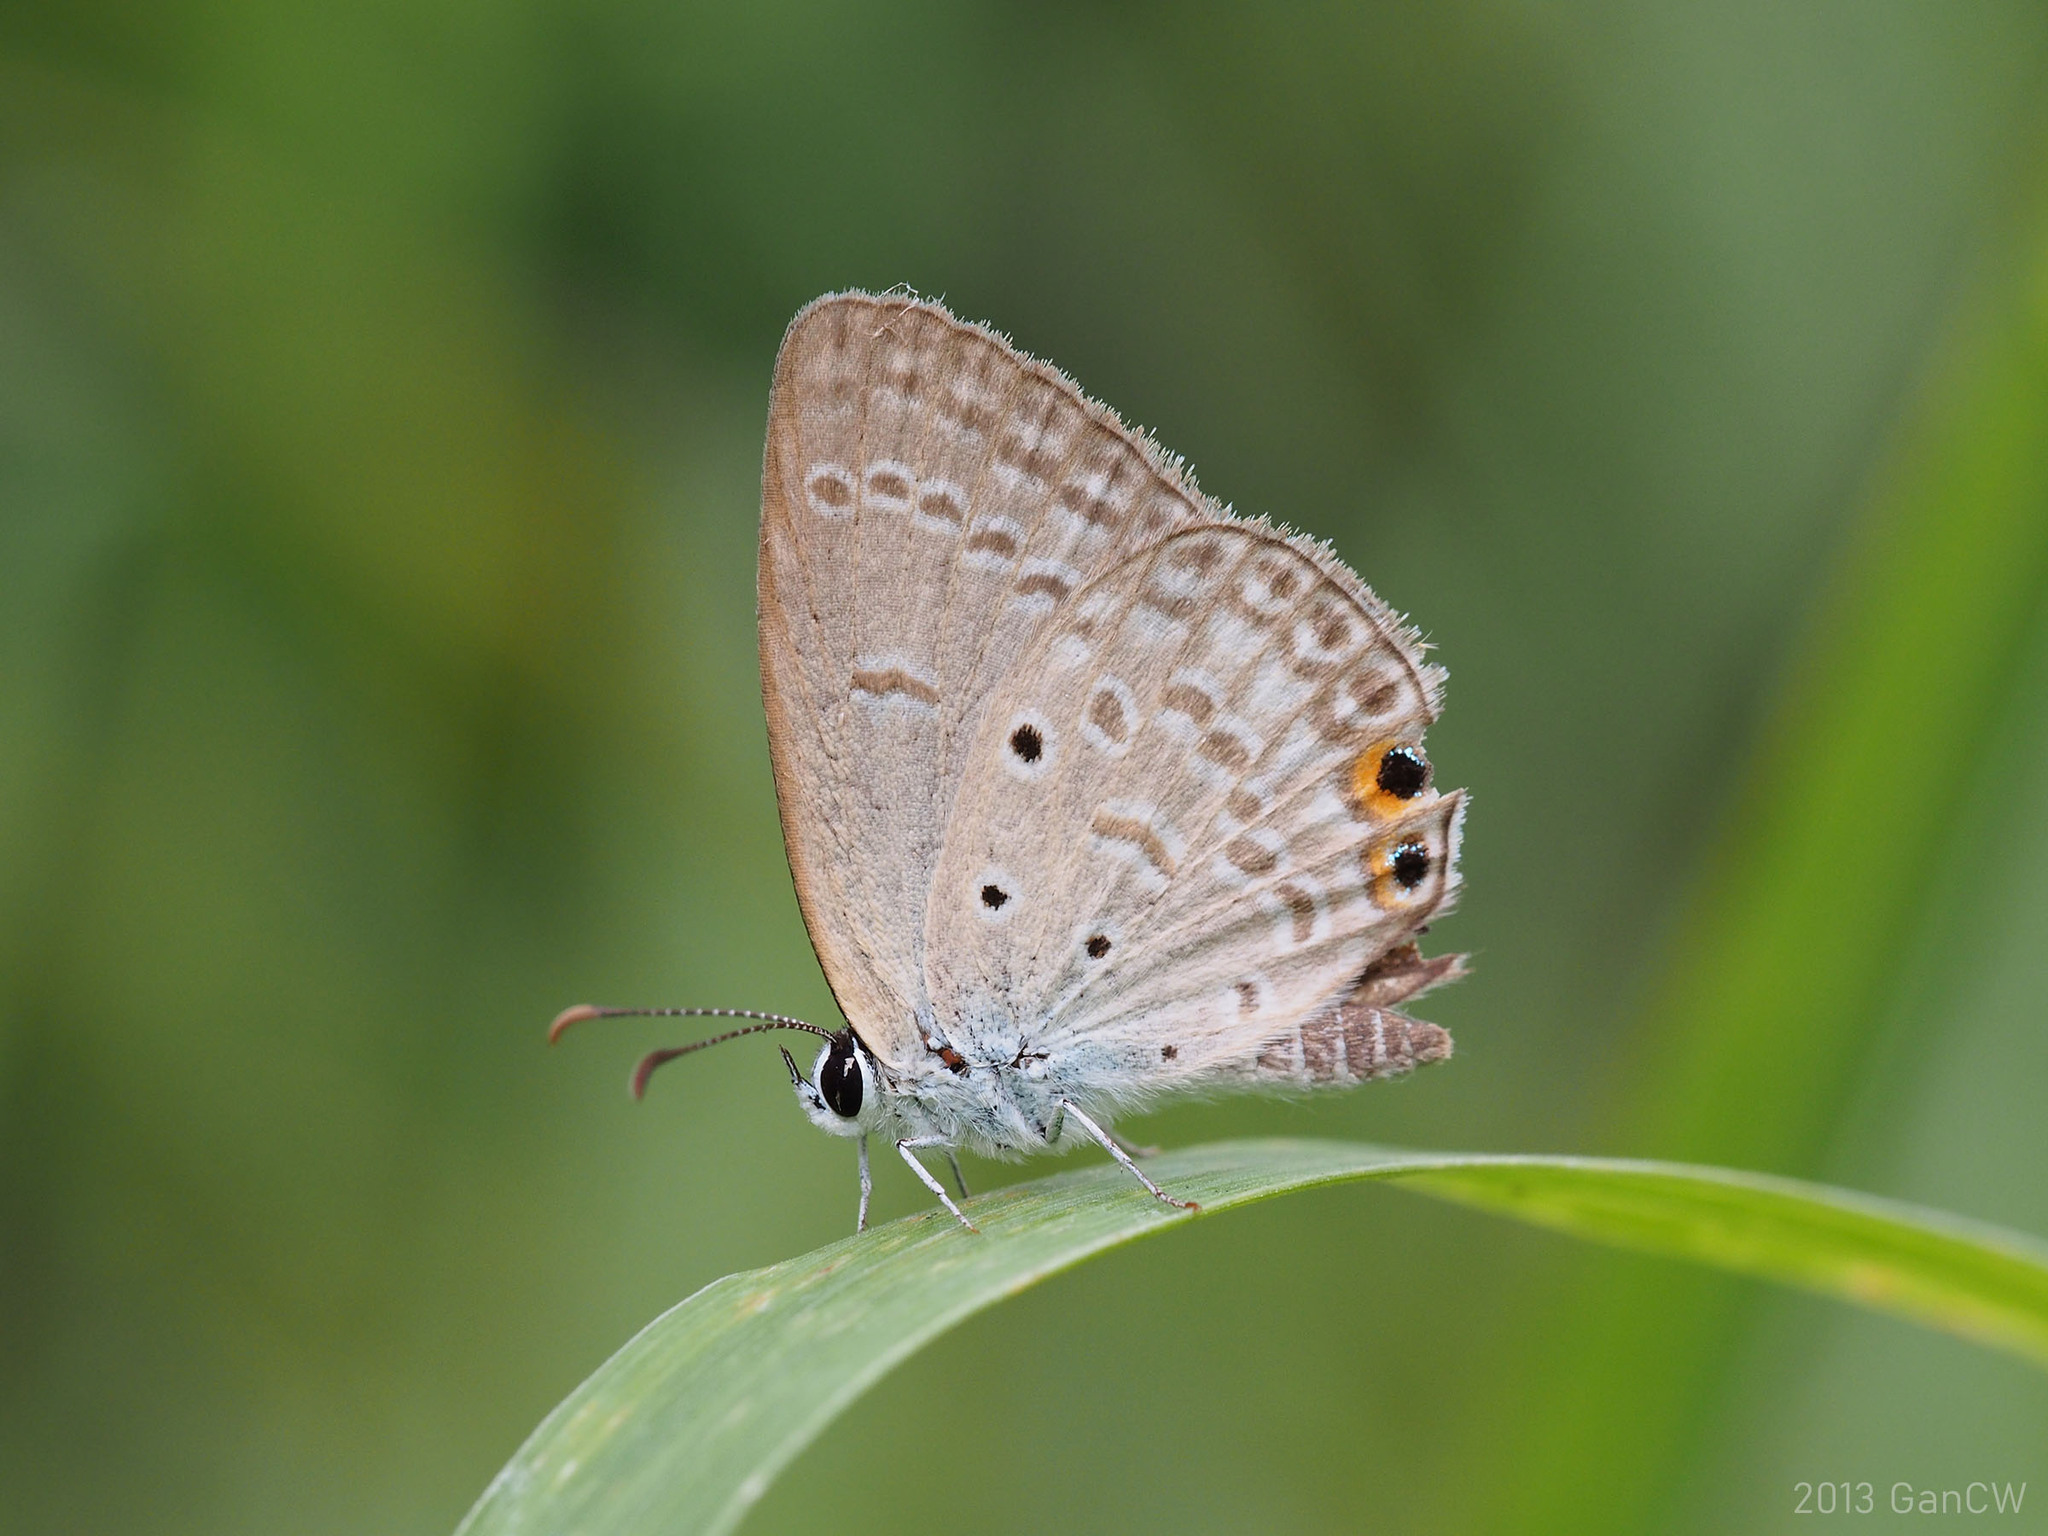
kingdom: Animalia
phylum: Arthropoda
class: Insecta
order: Lepidoptera
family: Lycaenidae
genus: Euchrysops
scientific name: Euchrysops cnejus
